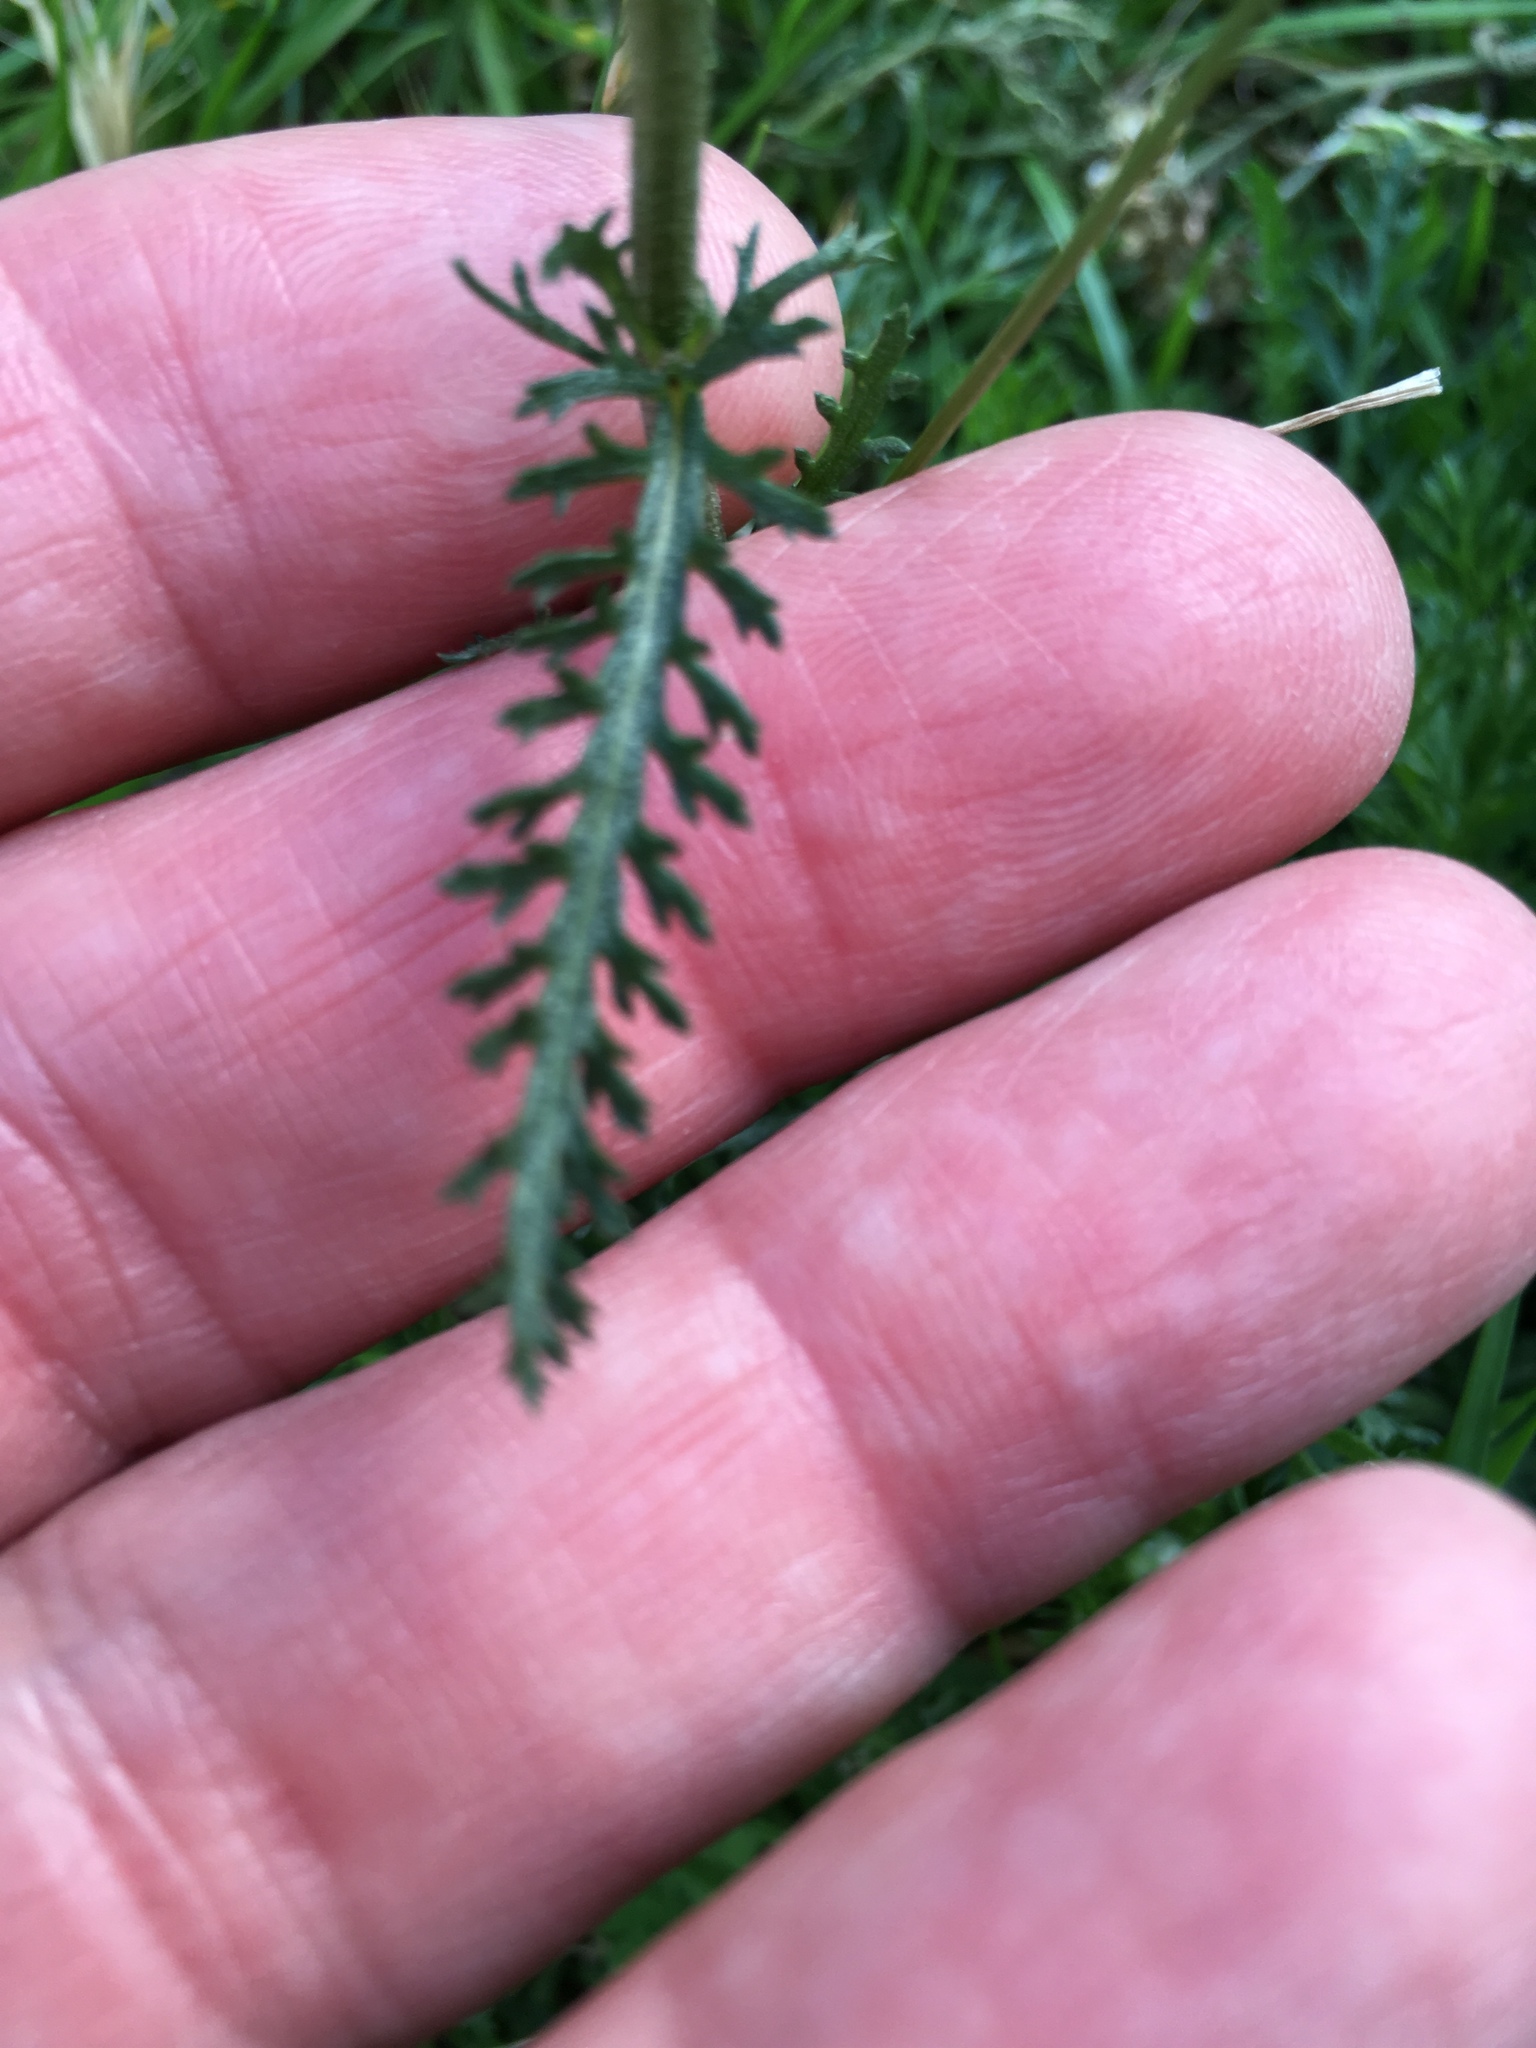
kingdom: Plantae
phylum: Tracheophyta
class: Magnoliopsida
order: Asterales
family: Asteraceae
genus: Achillea
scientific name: Achillea millefolium
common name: Yarrow
